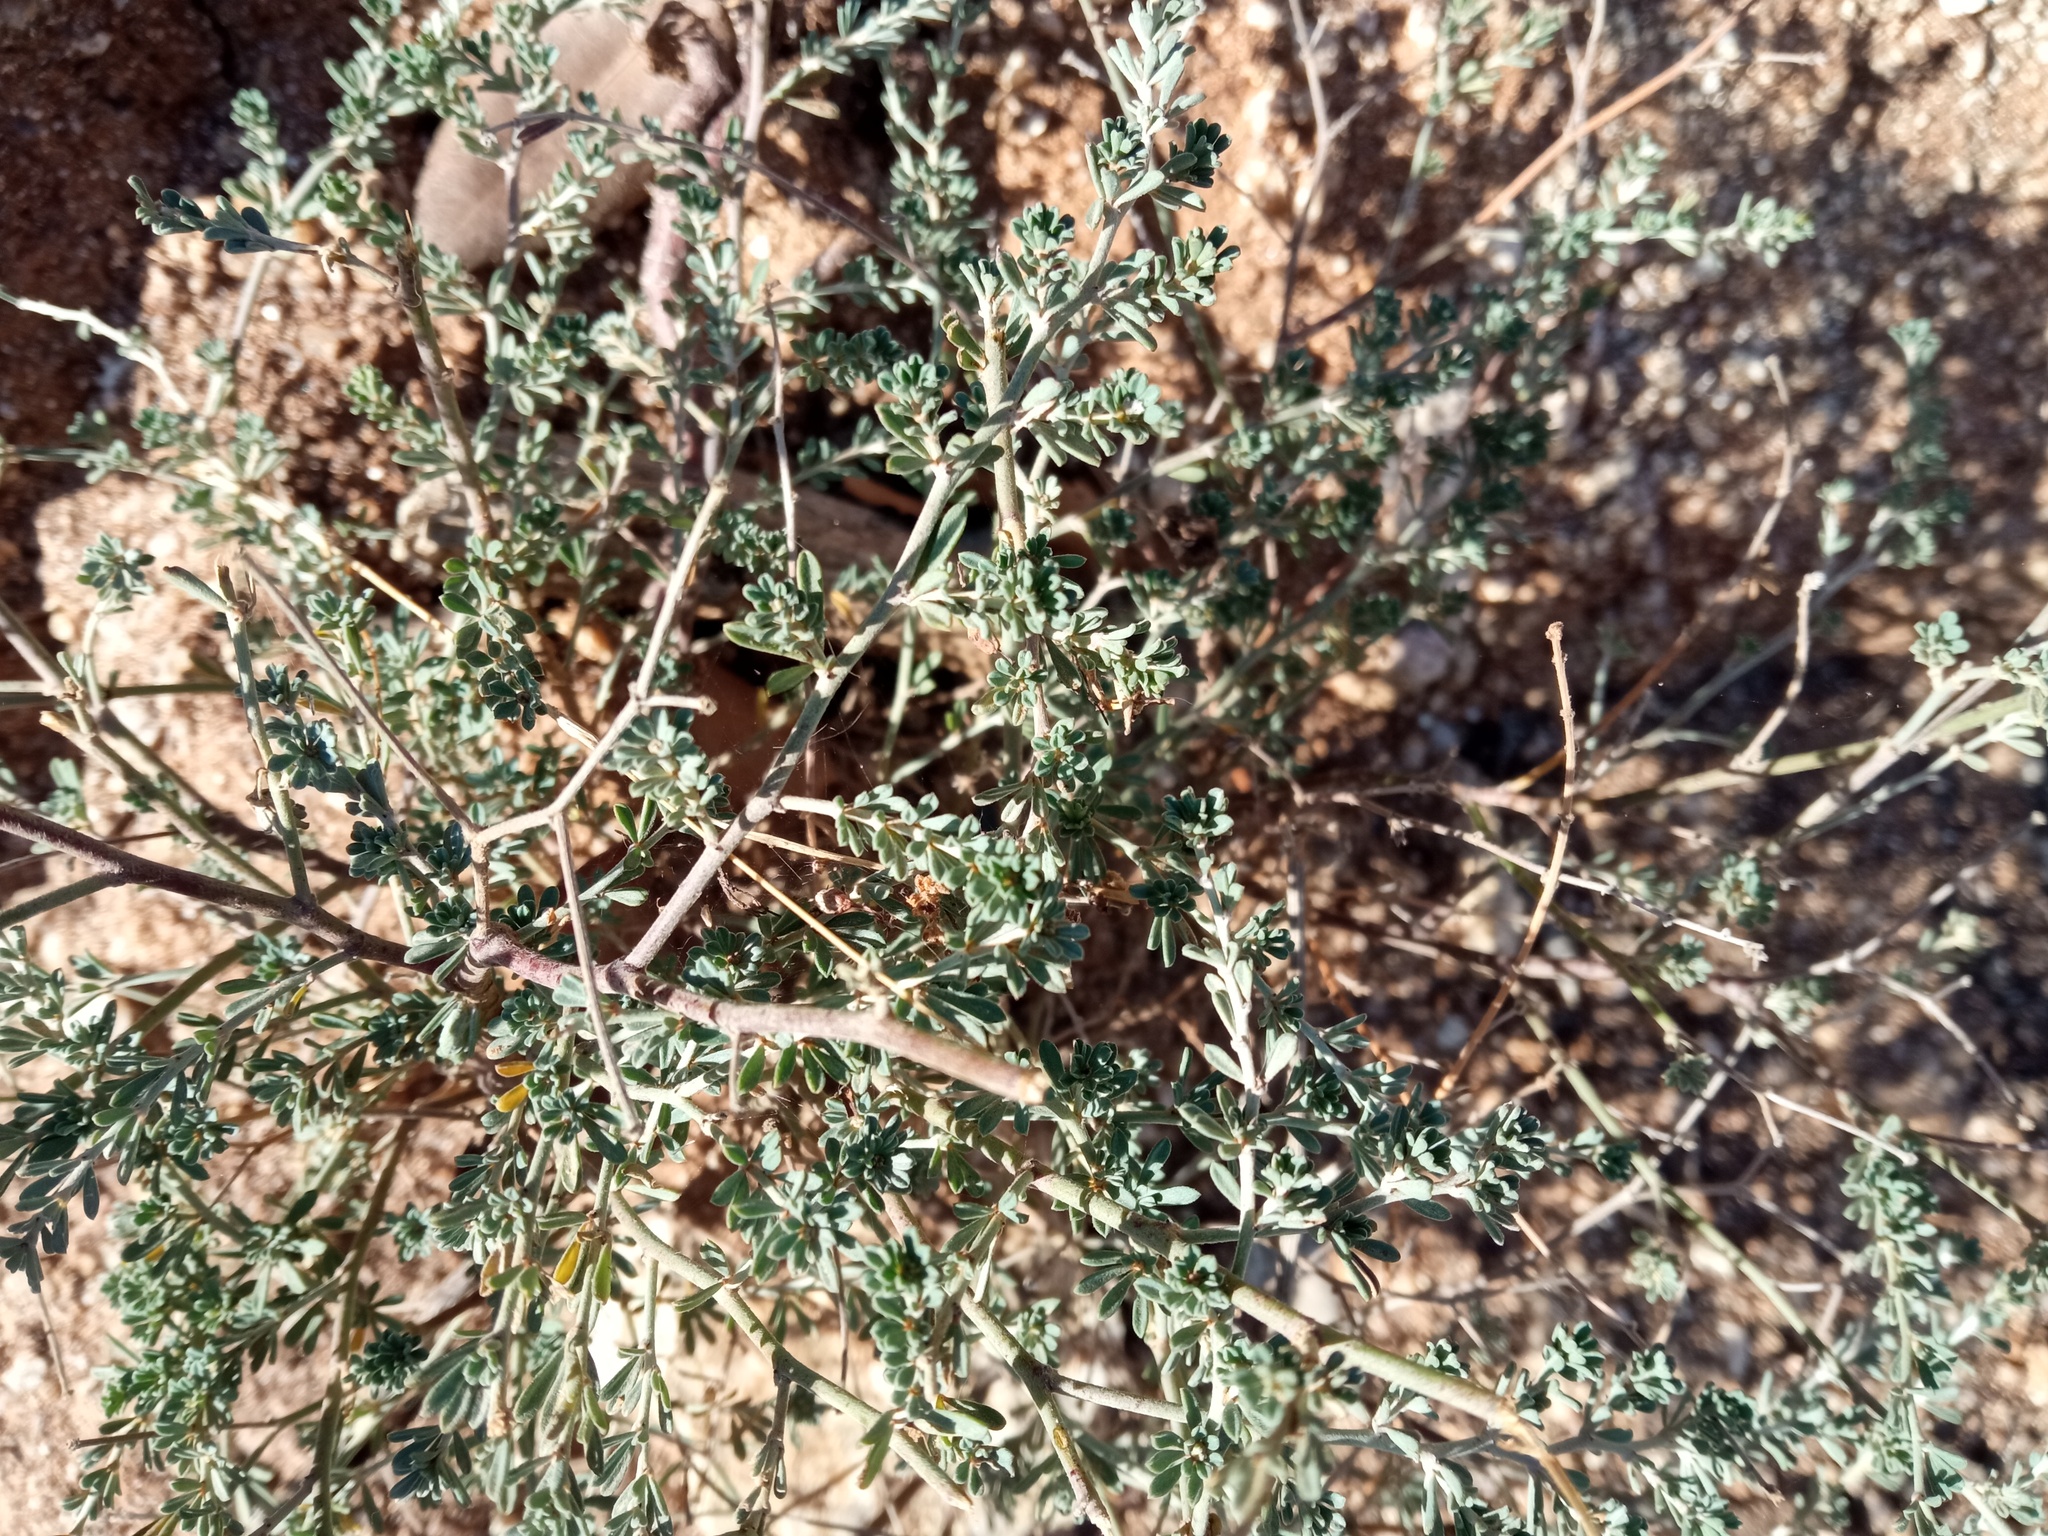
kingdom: Plantae
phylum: Tracheophyta
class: Magnoliopsida
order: Fabales
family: Fabaceae
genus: Lotus
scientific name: Lotus dorycnium
